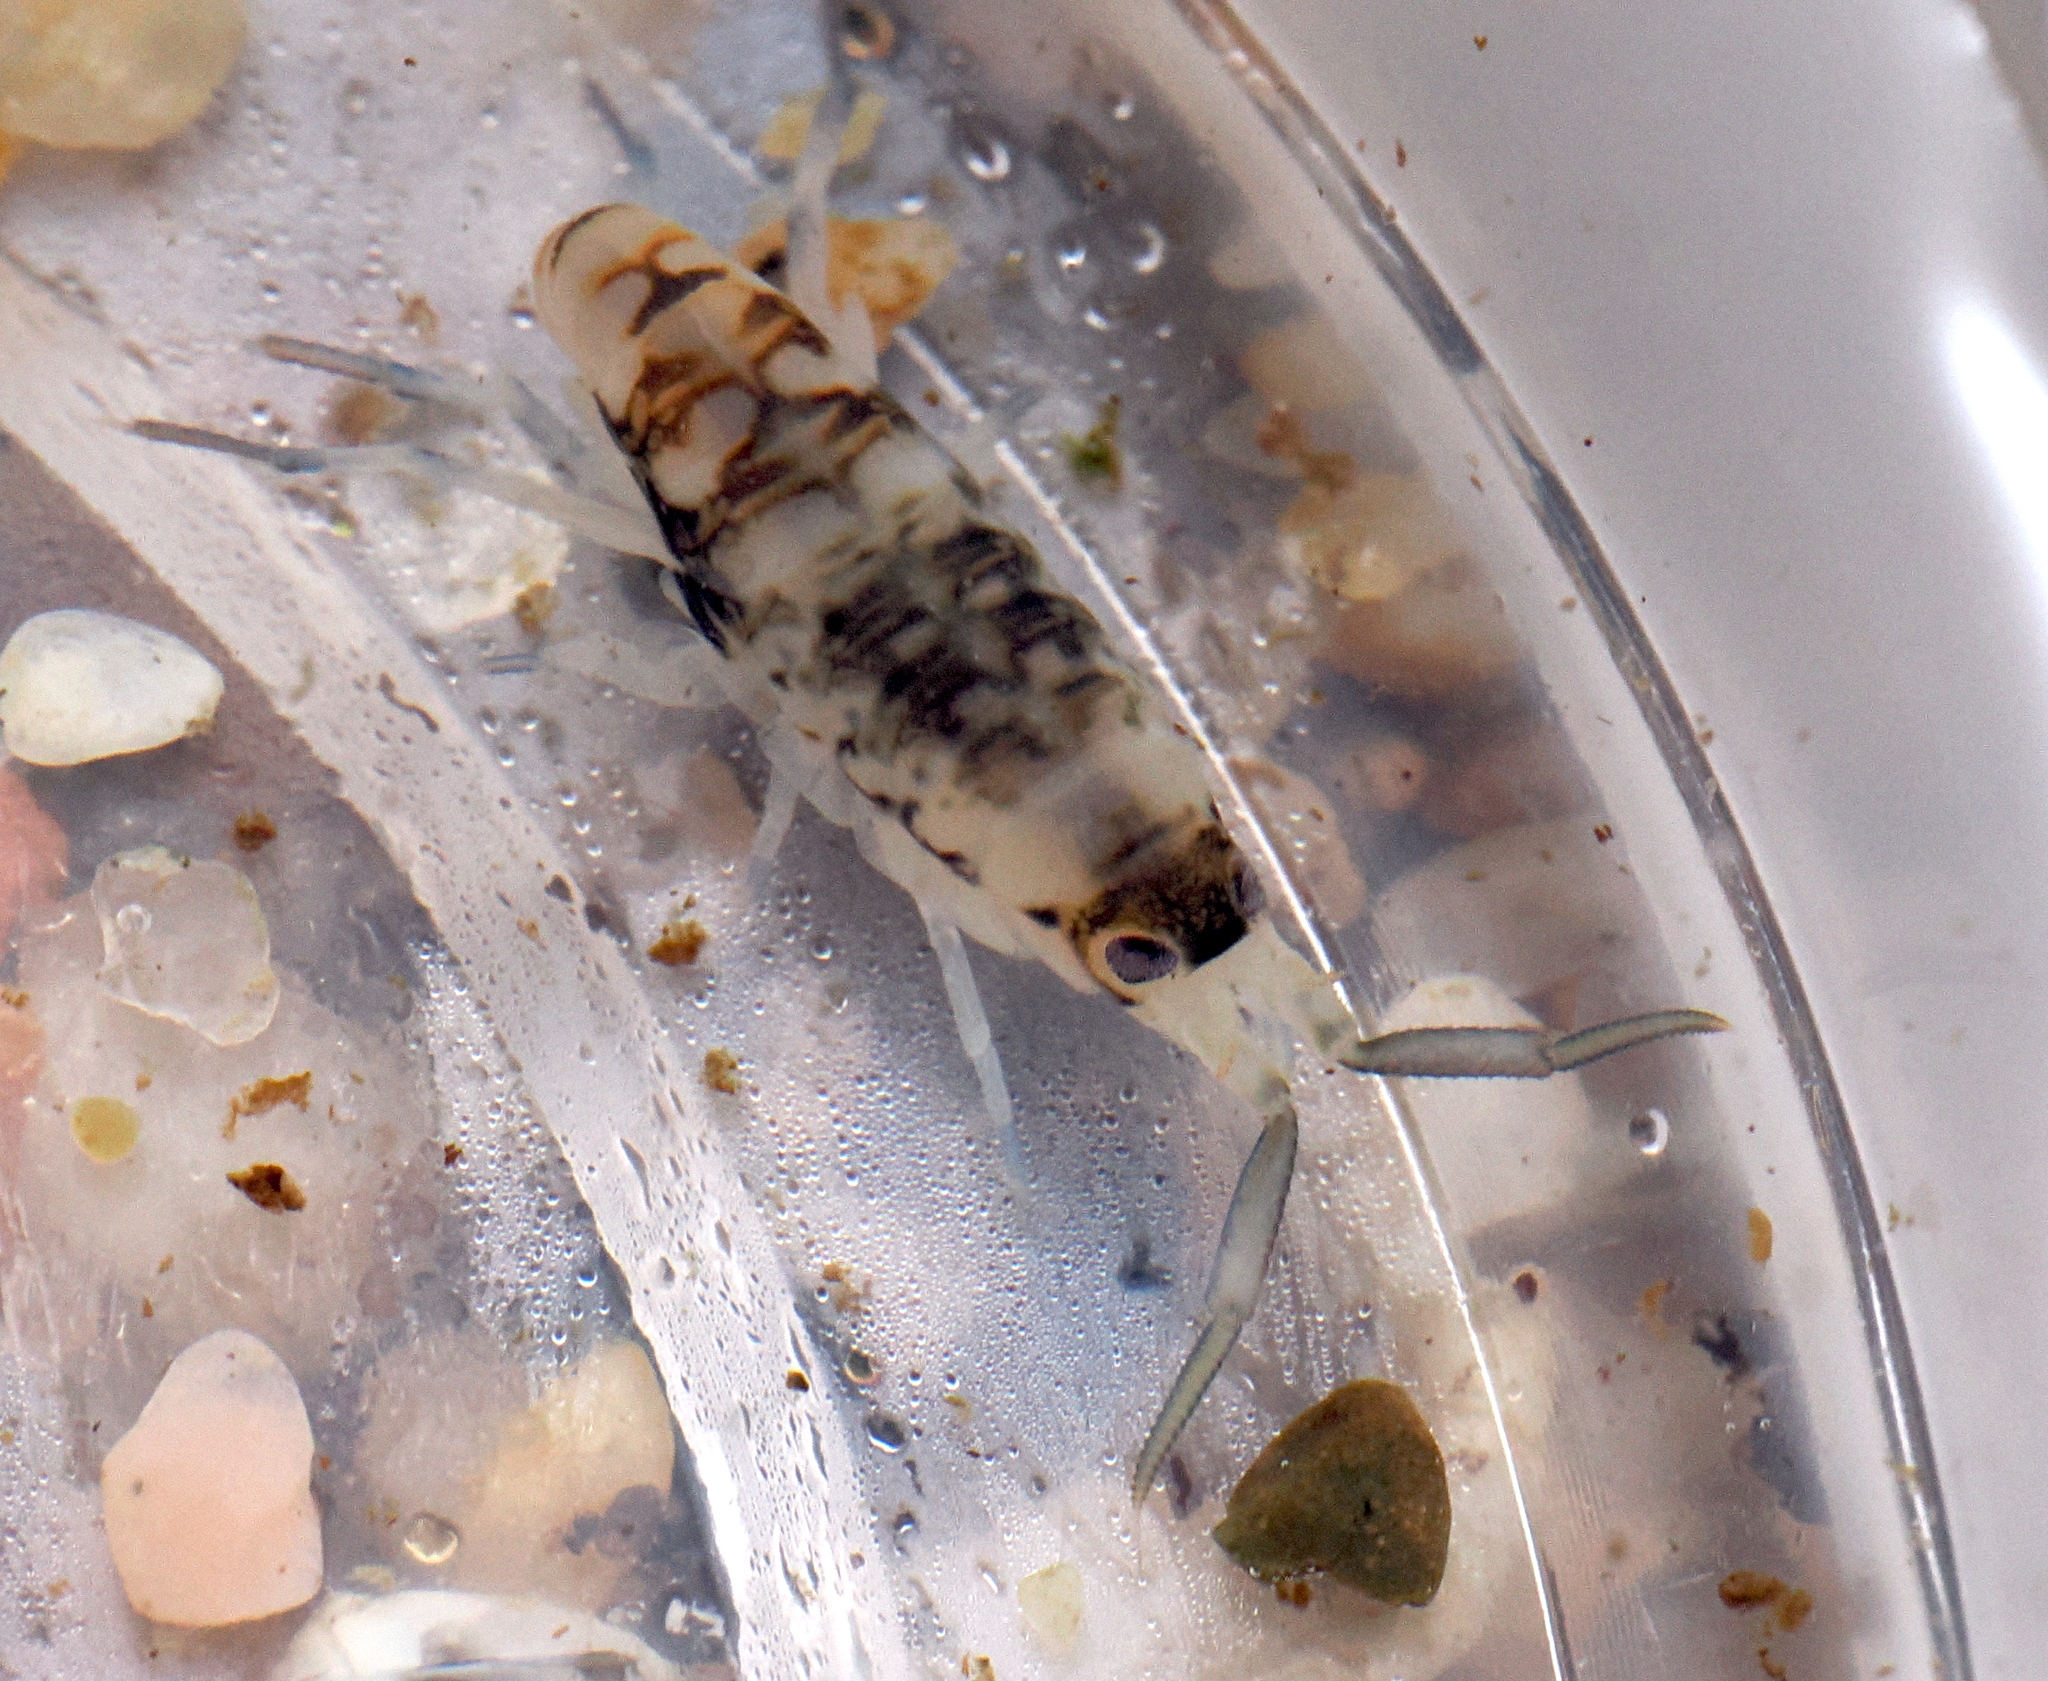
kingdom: Animalia
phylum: Arthropoda
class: Malacostraca
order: Amphipoda
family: Talitridae
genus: Megalorchestia
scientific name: Megalorchestia pugettensis
